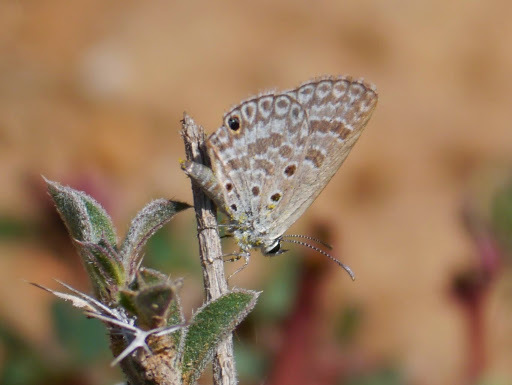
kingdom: Animalia
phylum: Arthropoda
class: Insecta
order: Lepidoptera
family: Lycaenidae
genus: Euchrysops
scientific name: Euchrysops subpallida
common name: Ashen smoky blue
